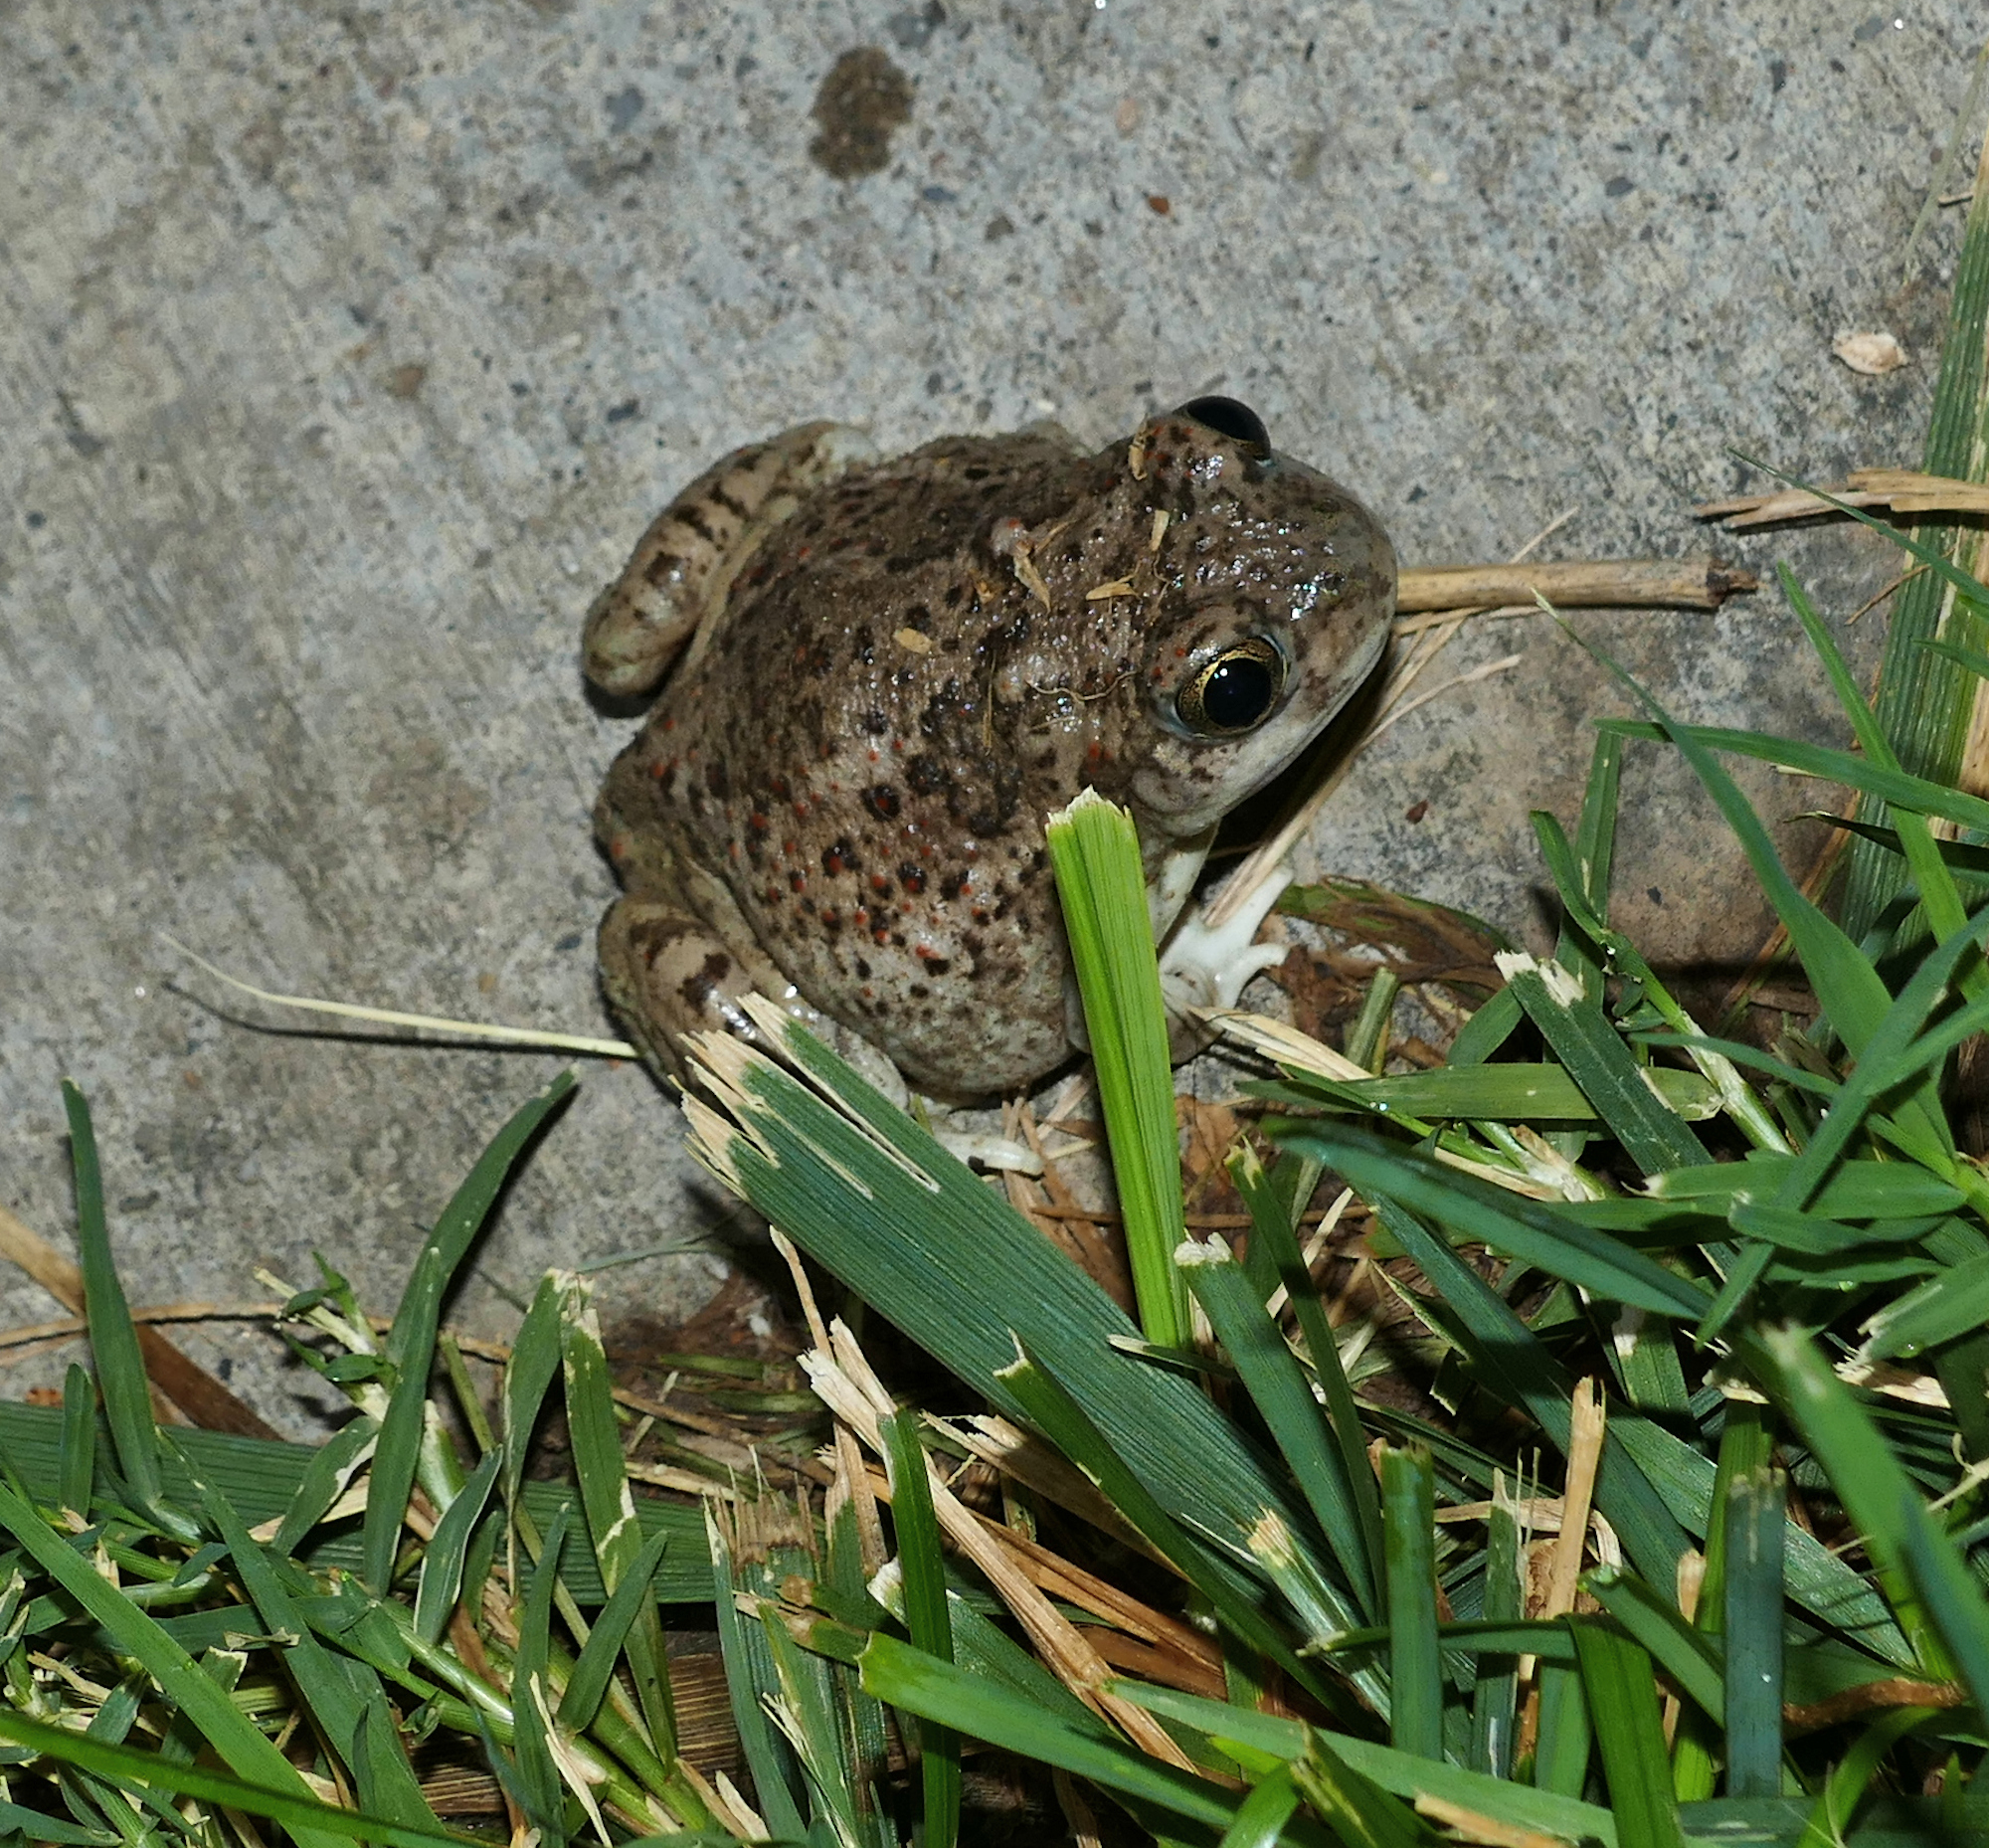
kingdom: Animalia
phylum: Chordata
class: Amphibia
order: Anura
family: Scaphiopodidae
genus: Spea
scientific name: Spea multiplicata
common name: Mexican spadefoot
